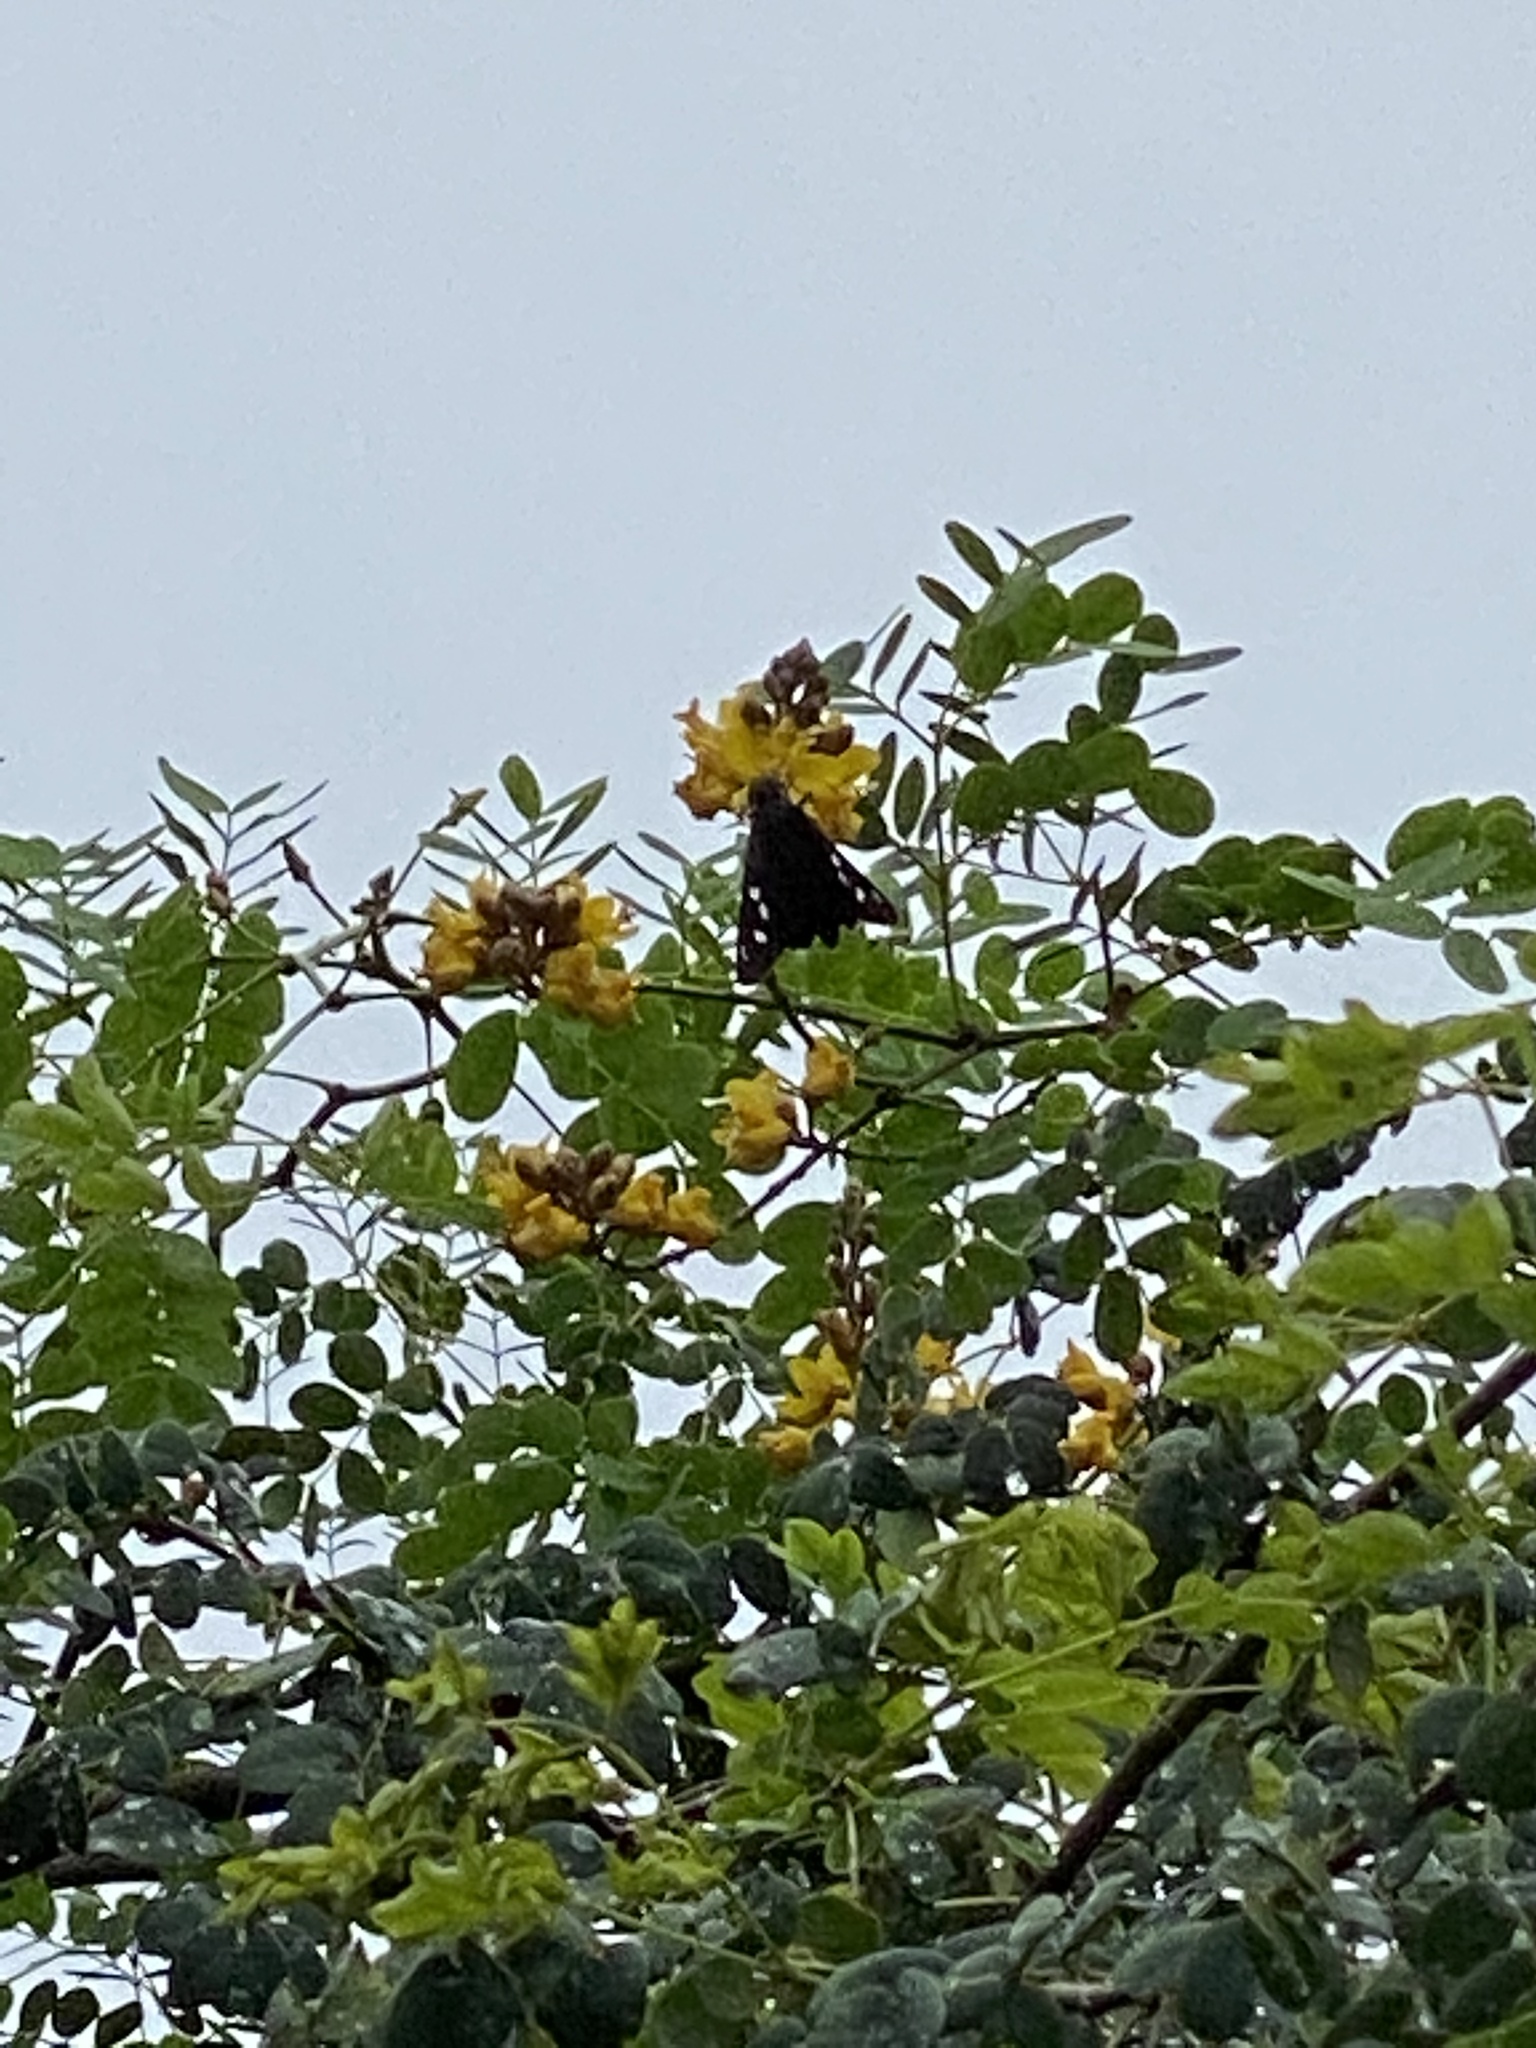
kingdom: Animalia
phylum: Arthropoda
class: Insecta
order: Lepidoptera
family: Hesperiidae
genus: Polygonus
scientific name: Polygonus leo
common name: Hammoch skipper
